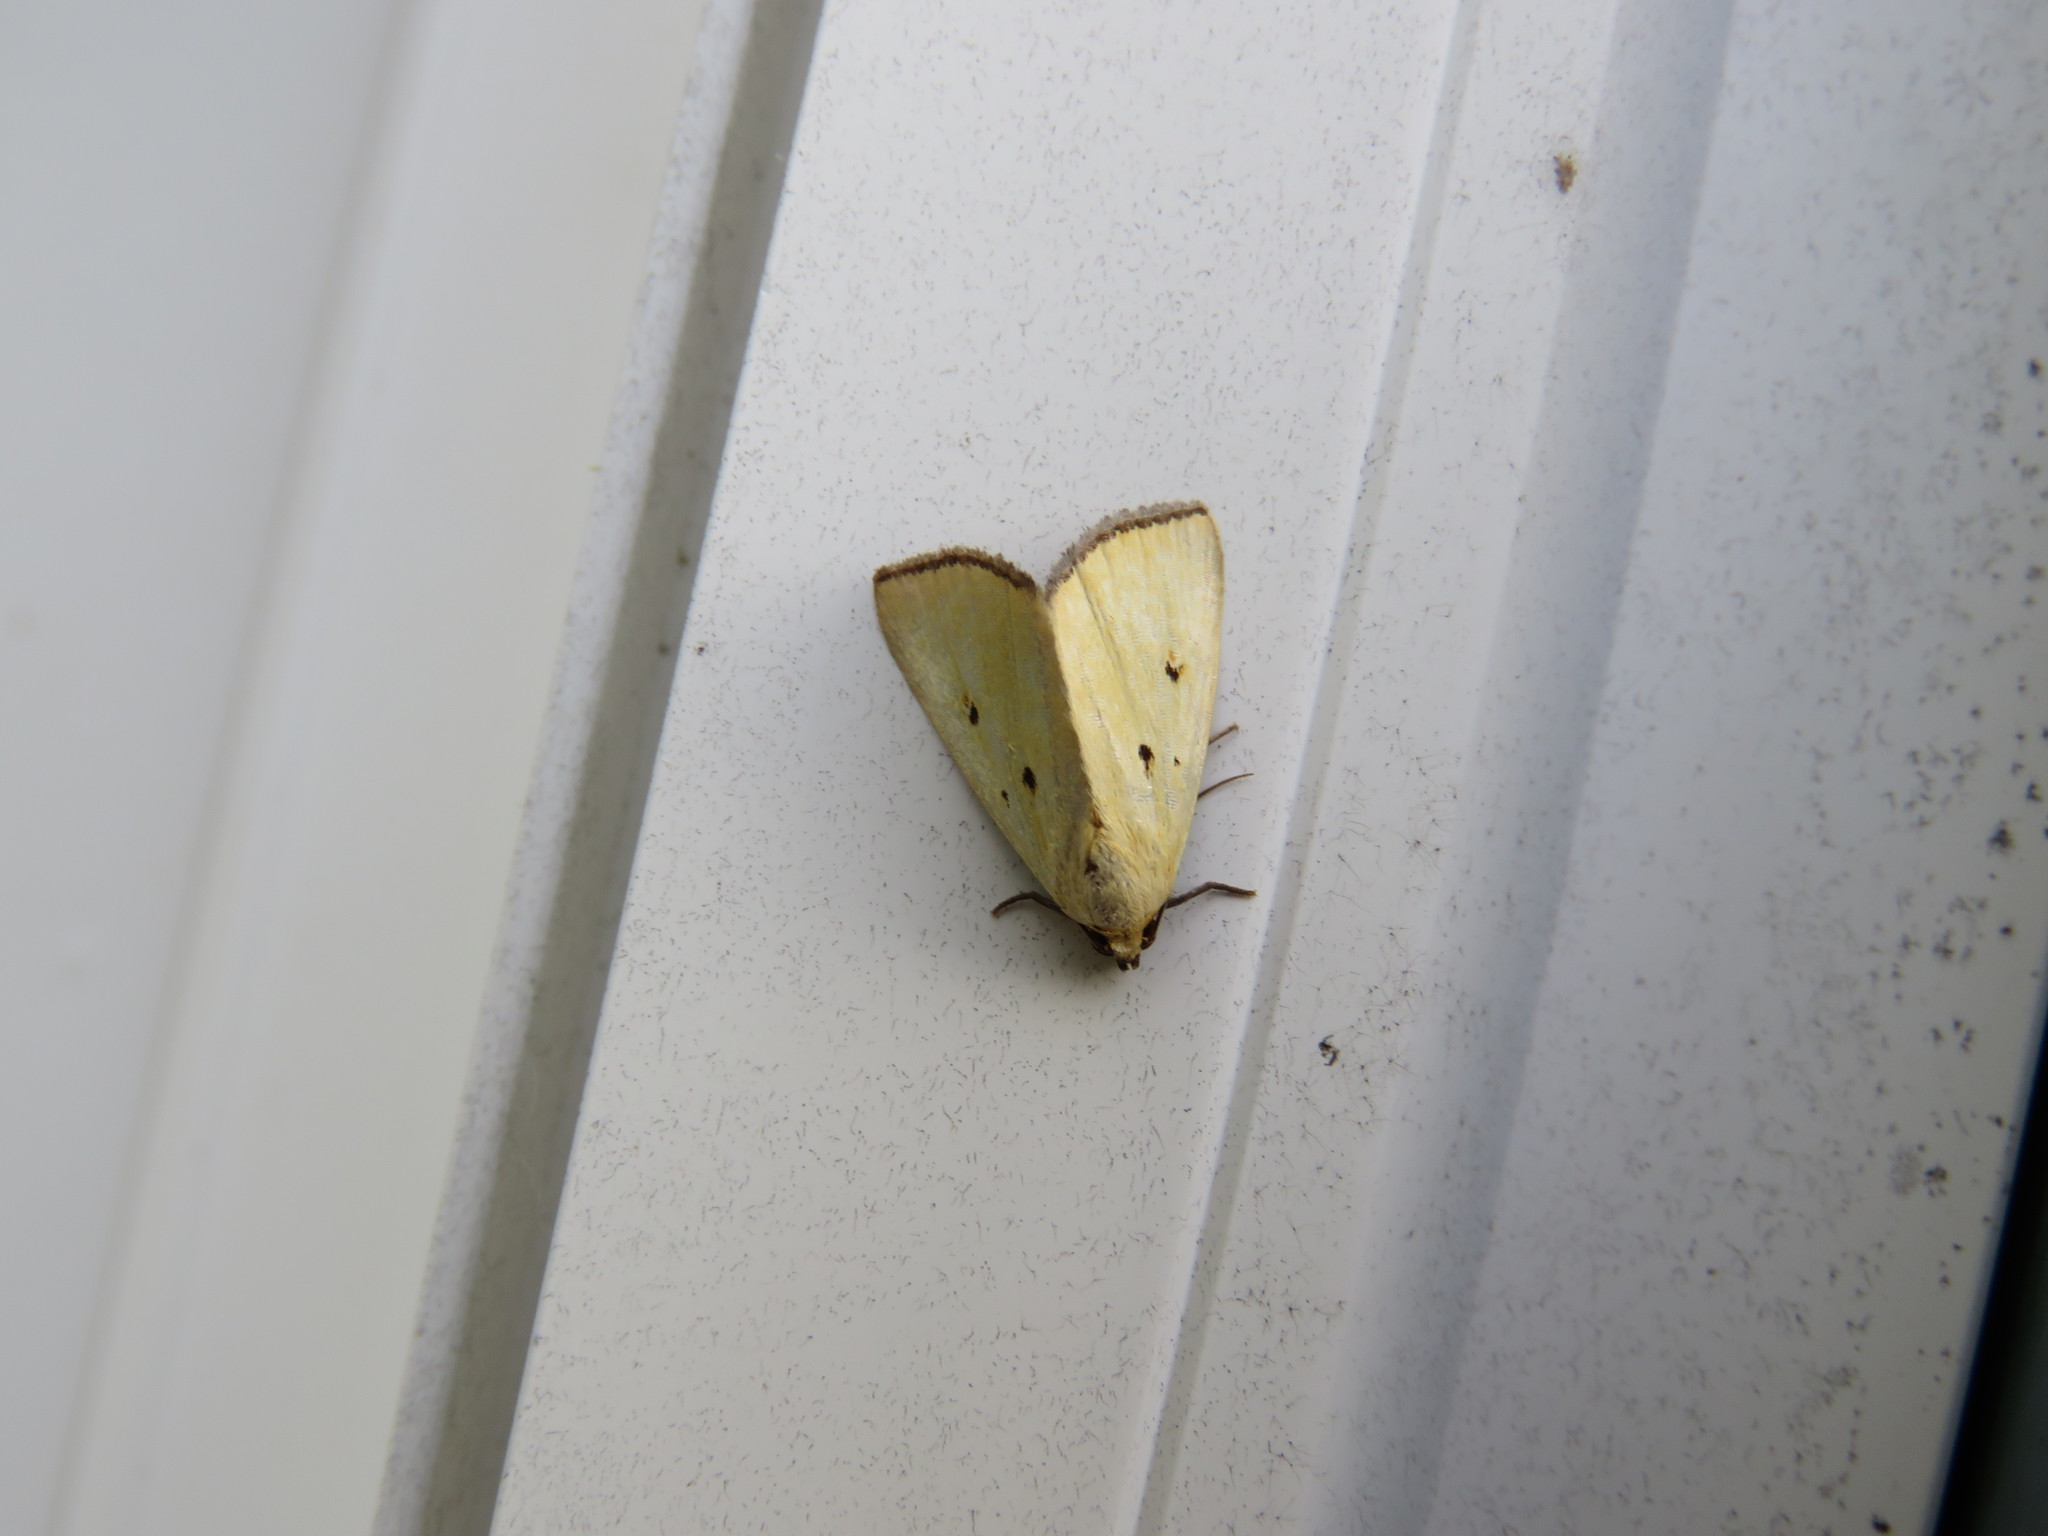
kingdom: Animalia
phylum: Arthropoda
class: Insecta
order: Lepidoptera
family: Noctuidae
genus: Marimatha
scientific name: Marimatha nigrofimbria
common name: Black-bordered lemon moth
